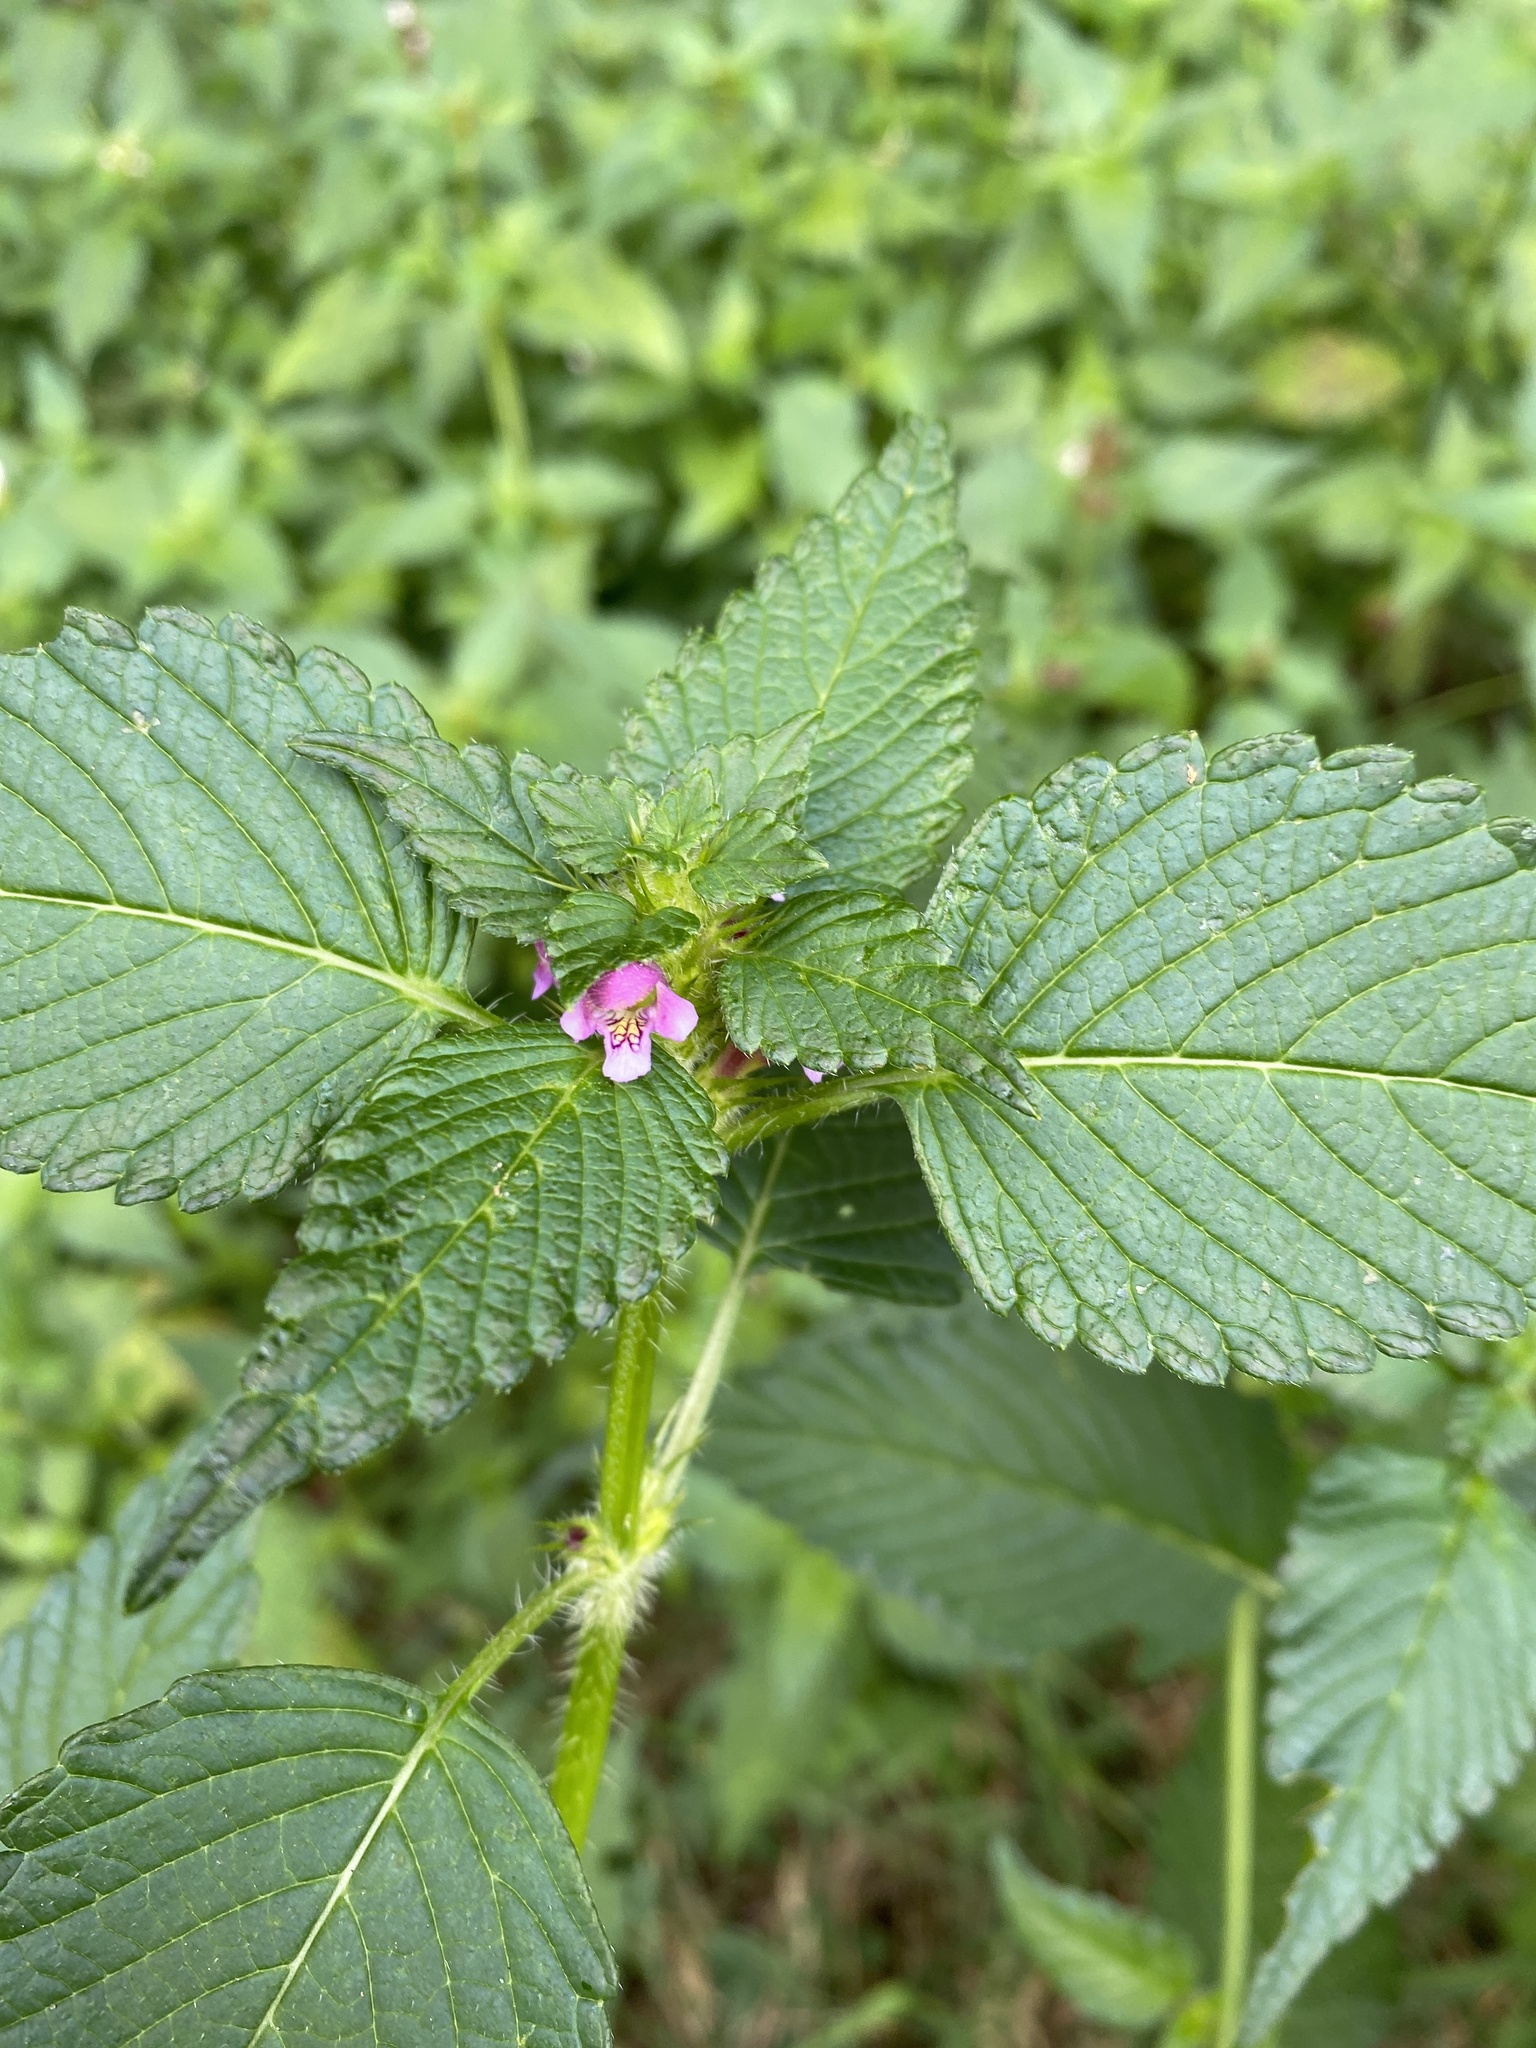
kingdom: Plantae
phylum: Tracheophyta
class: Magnoliopsida
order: Lamiales
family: Lamiaceae
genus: Galeopsis
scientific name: Galeopsis tetrahit
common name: Common hemp-nettle
